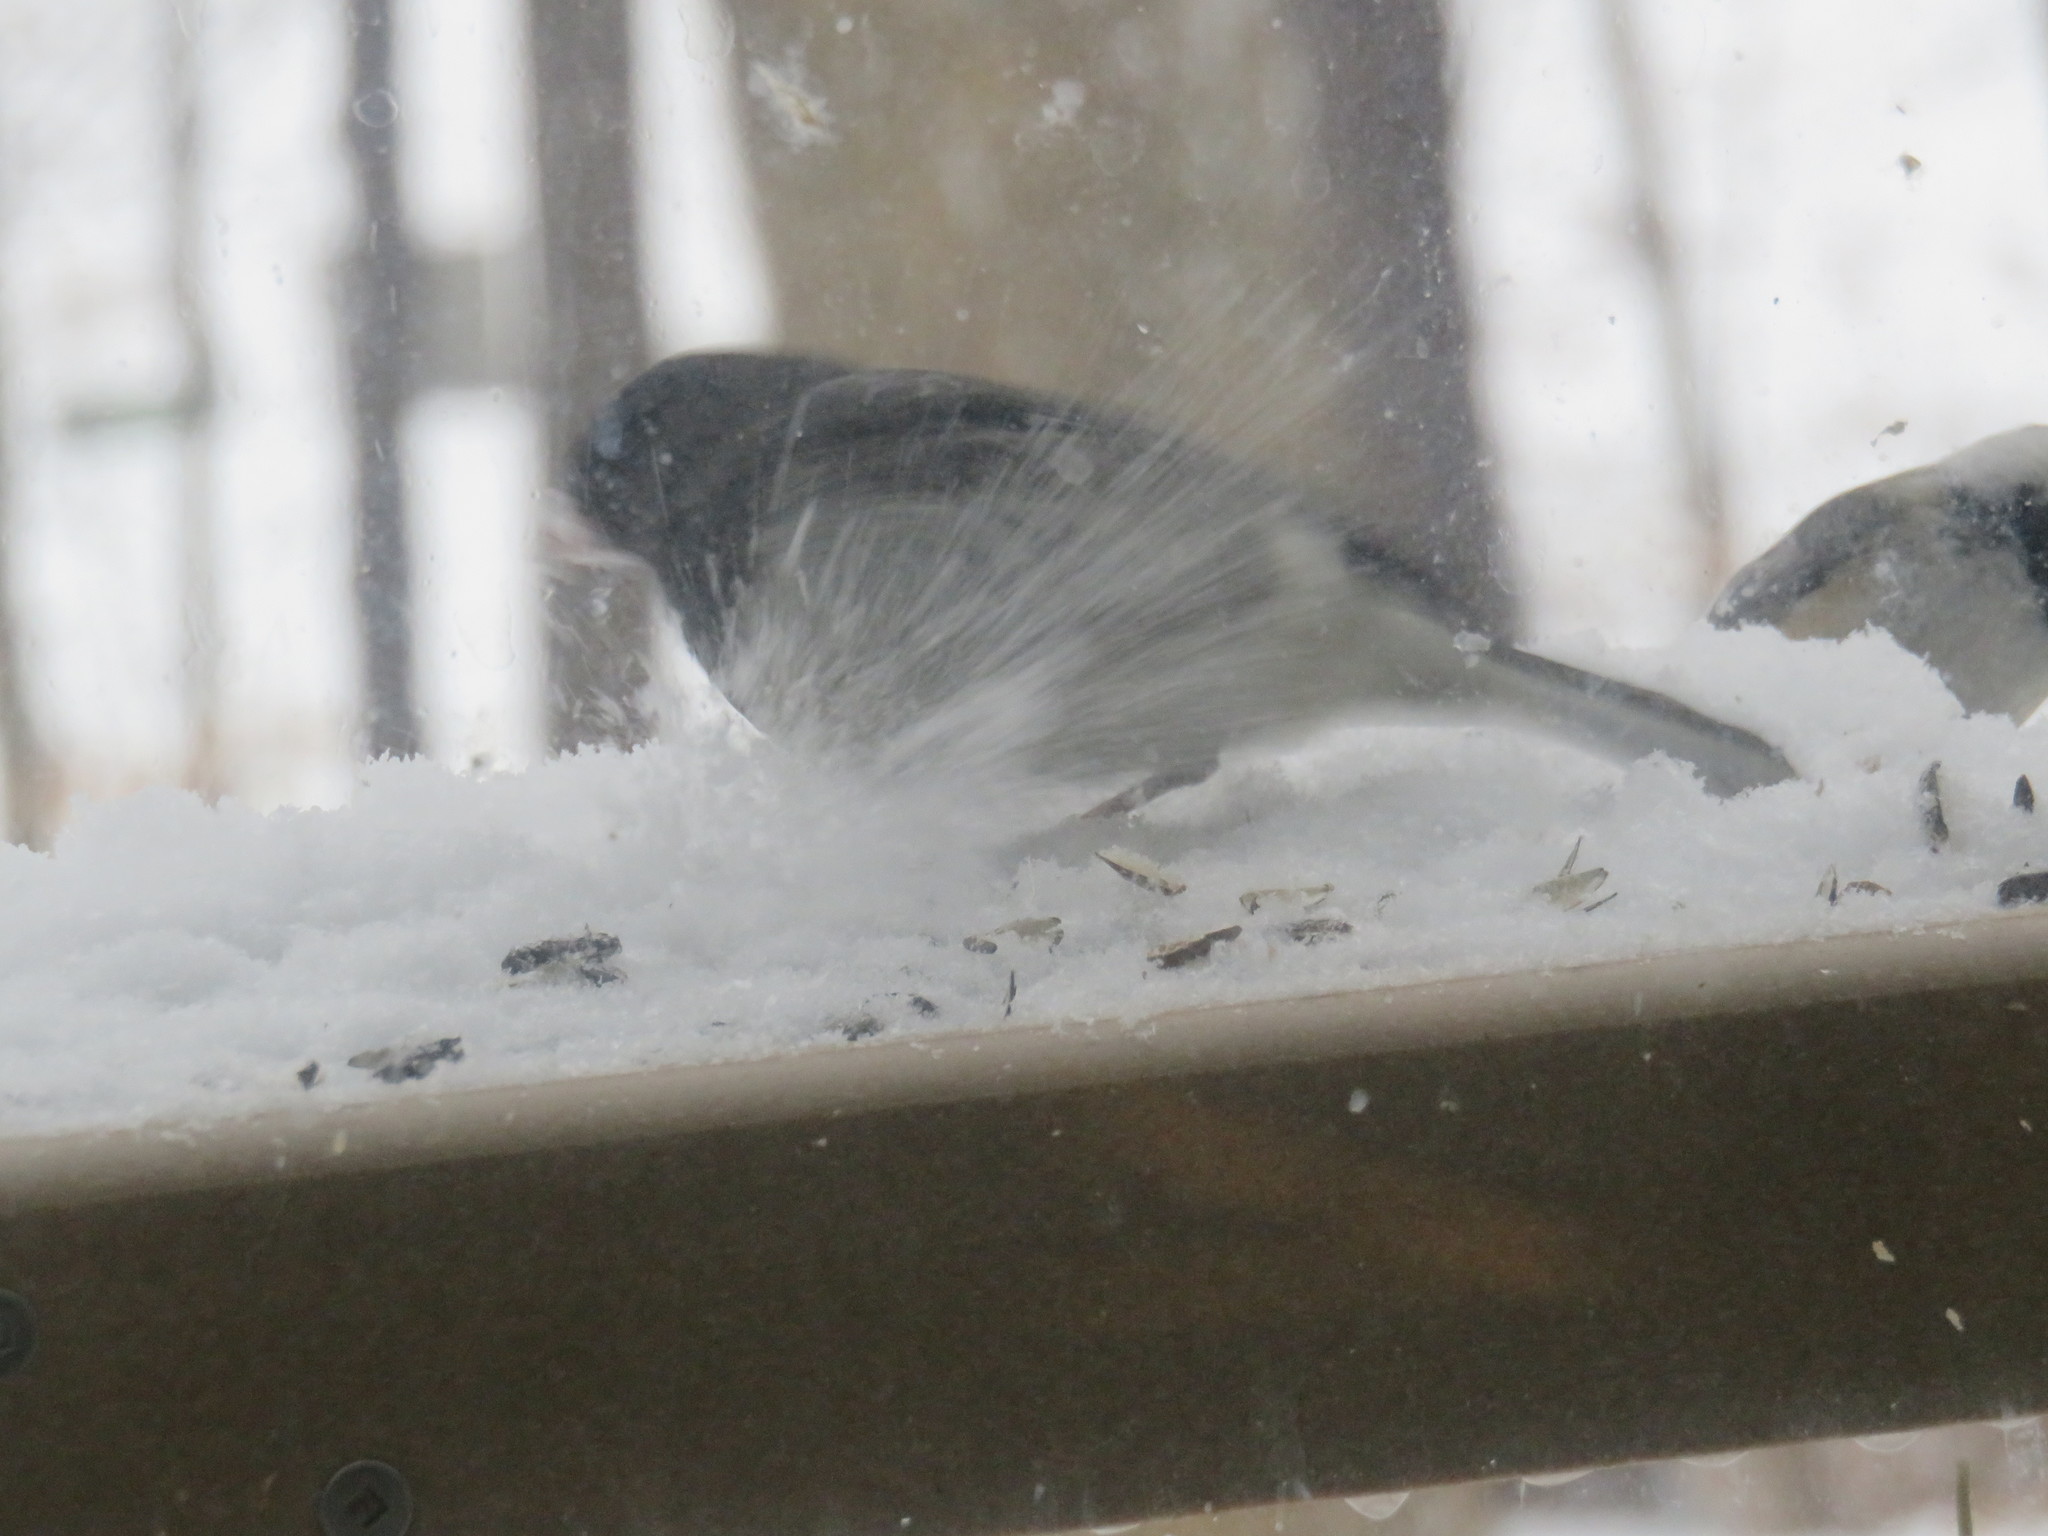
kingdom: Animalia
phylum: Chordata
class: Aves
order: Passeriformes
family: Passerellidae
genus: Junco
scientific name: Junco hyemalis
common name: Dark-eyed junco
